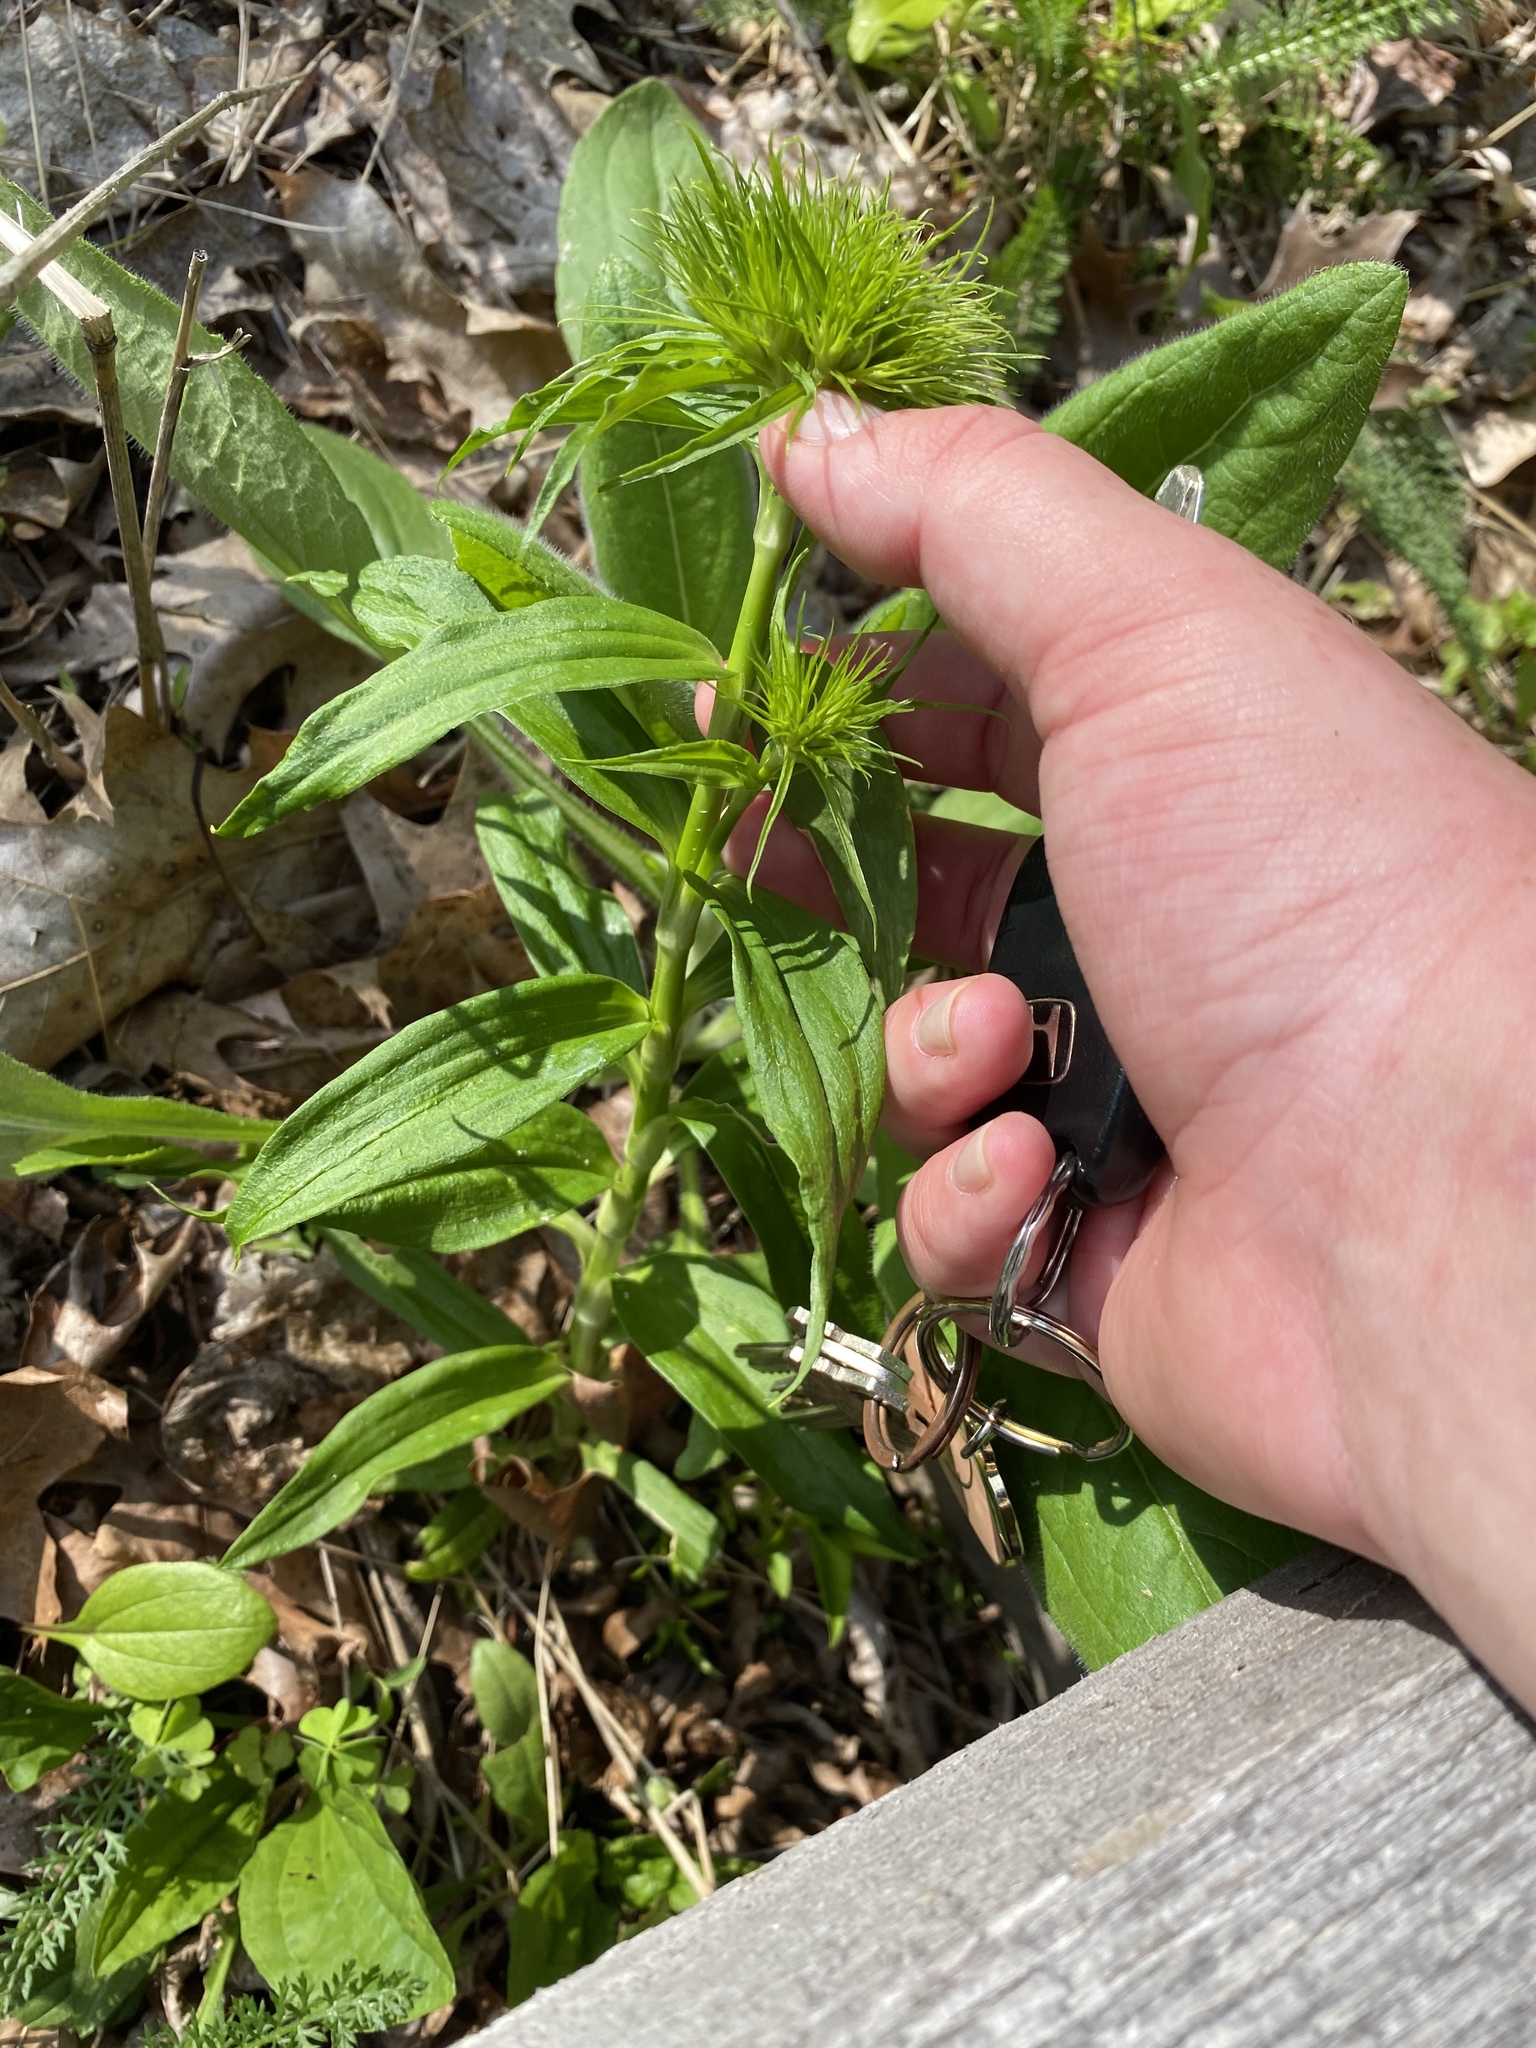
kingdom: Plantae
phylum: Tracheophyta
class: Magnoliopsida
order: Caryophyllales
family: Caryophyllaceae
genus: Dianthus
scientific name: Dianthus barbatus
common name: Sweet-william
